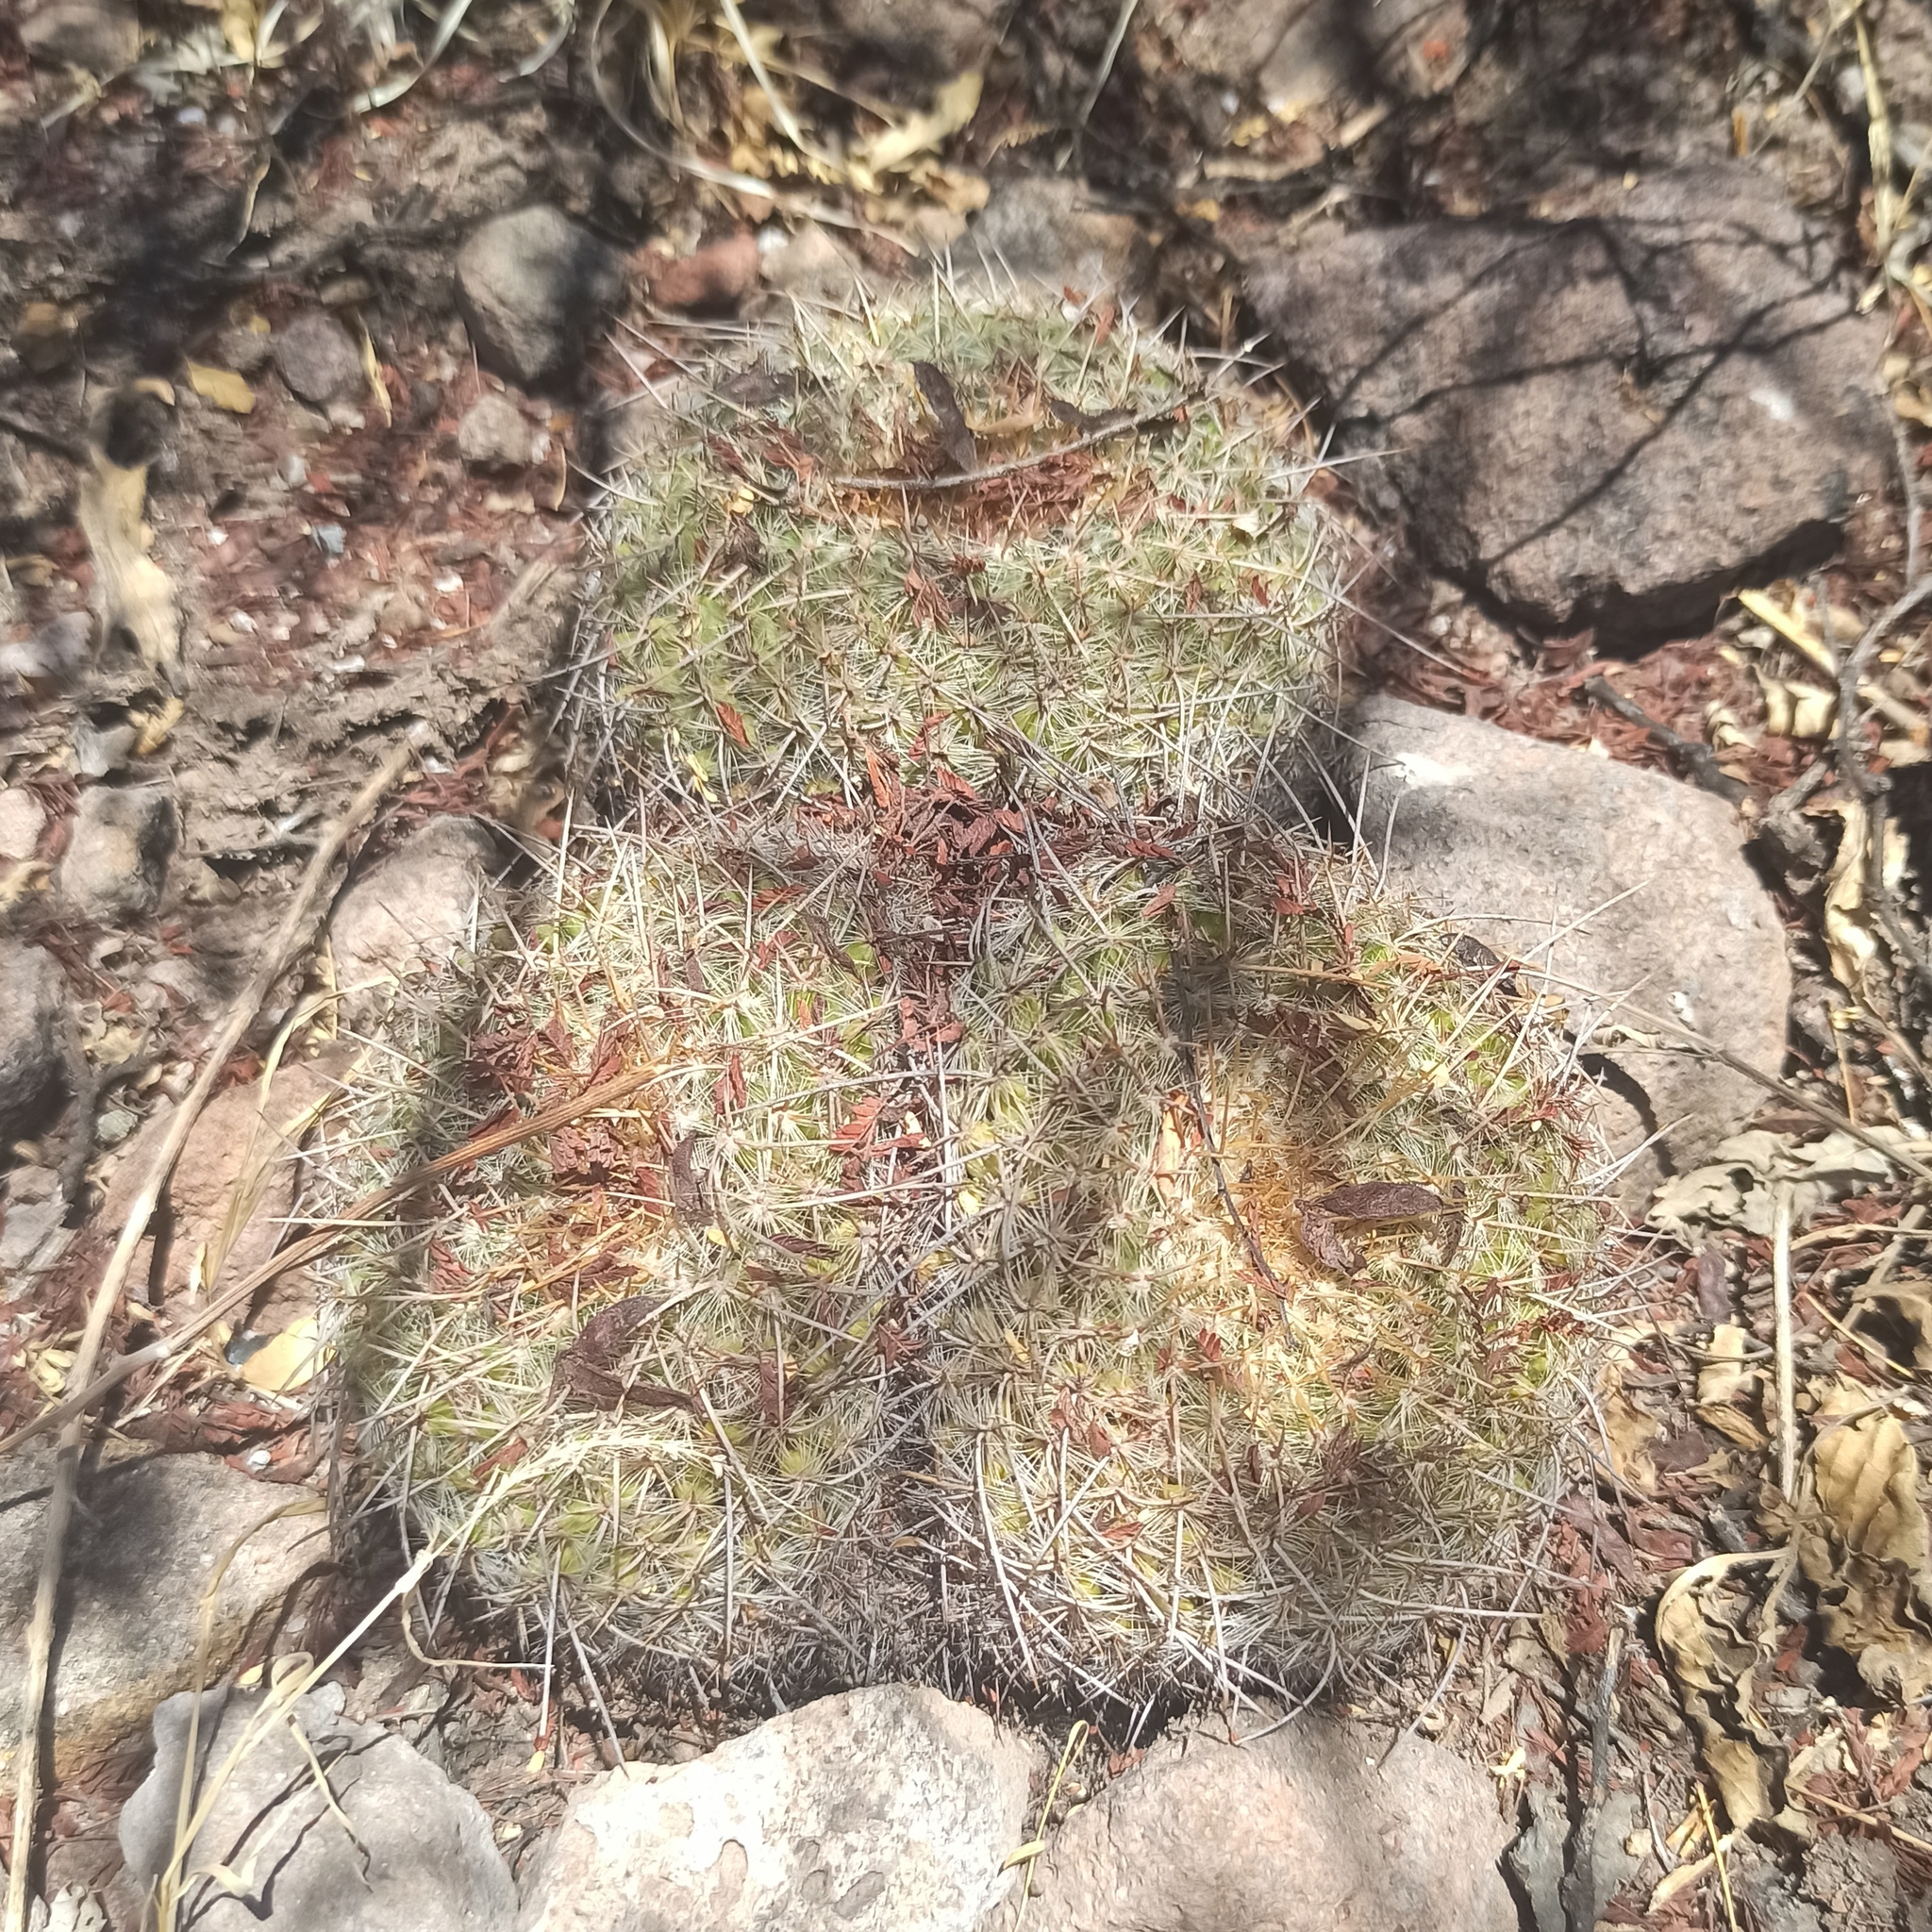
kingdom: Plantae
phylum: Tracheophyta
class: Magnoliopsida
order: Caryophyllales
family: Cactaceae
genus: Mammillaria
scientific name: Mammillaria muehlenpfordtii
